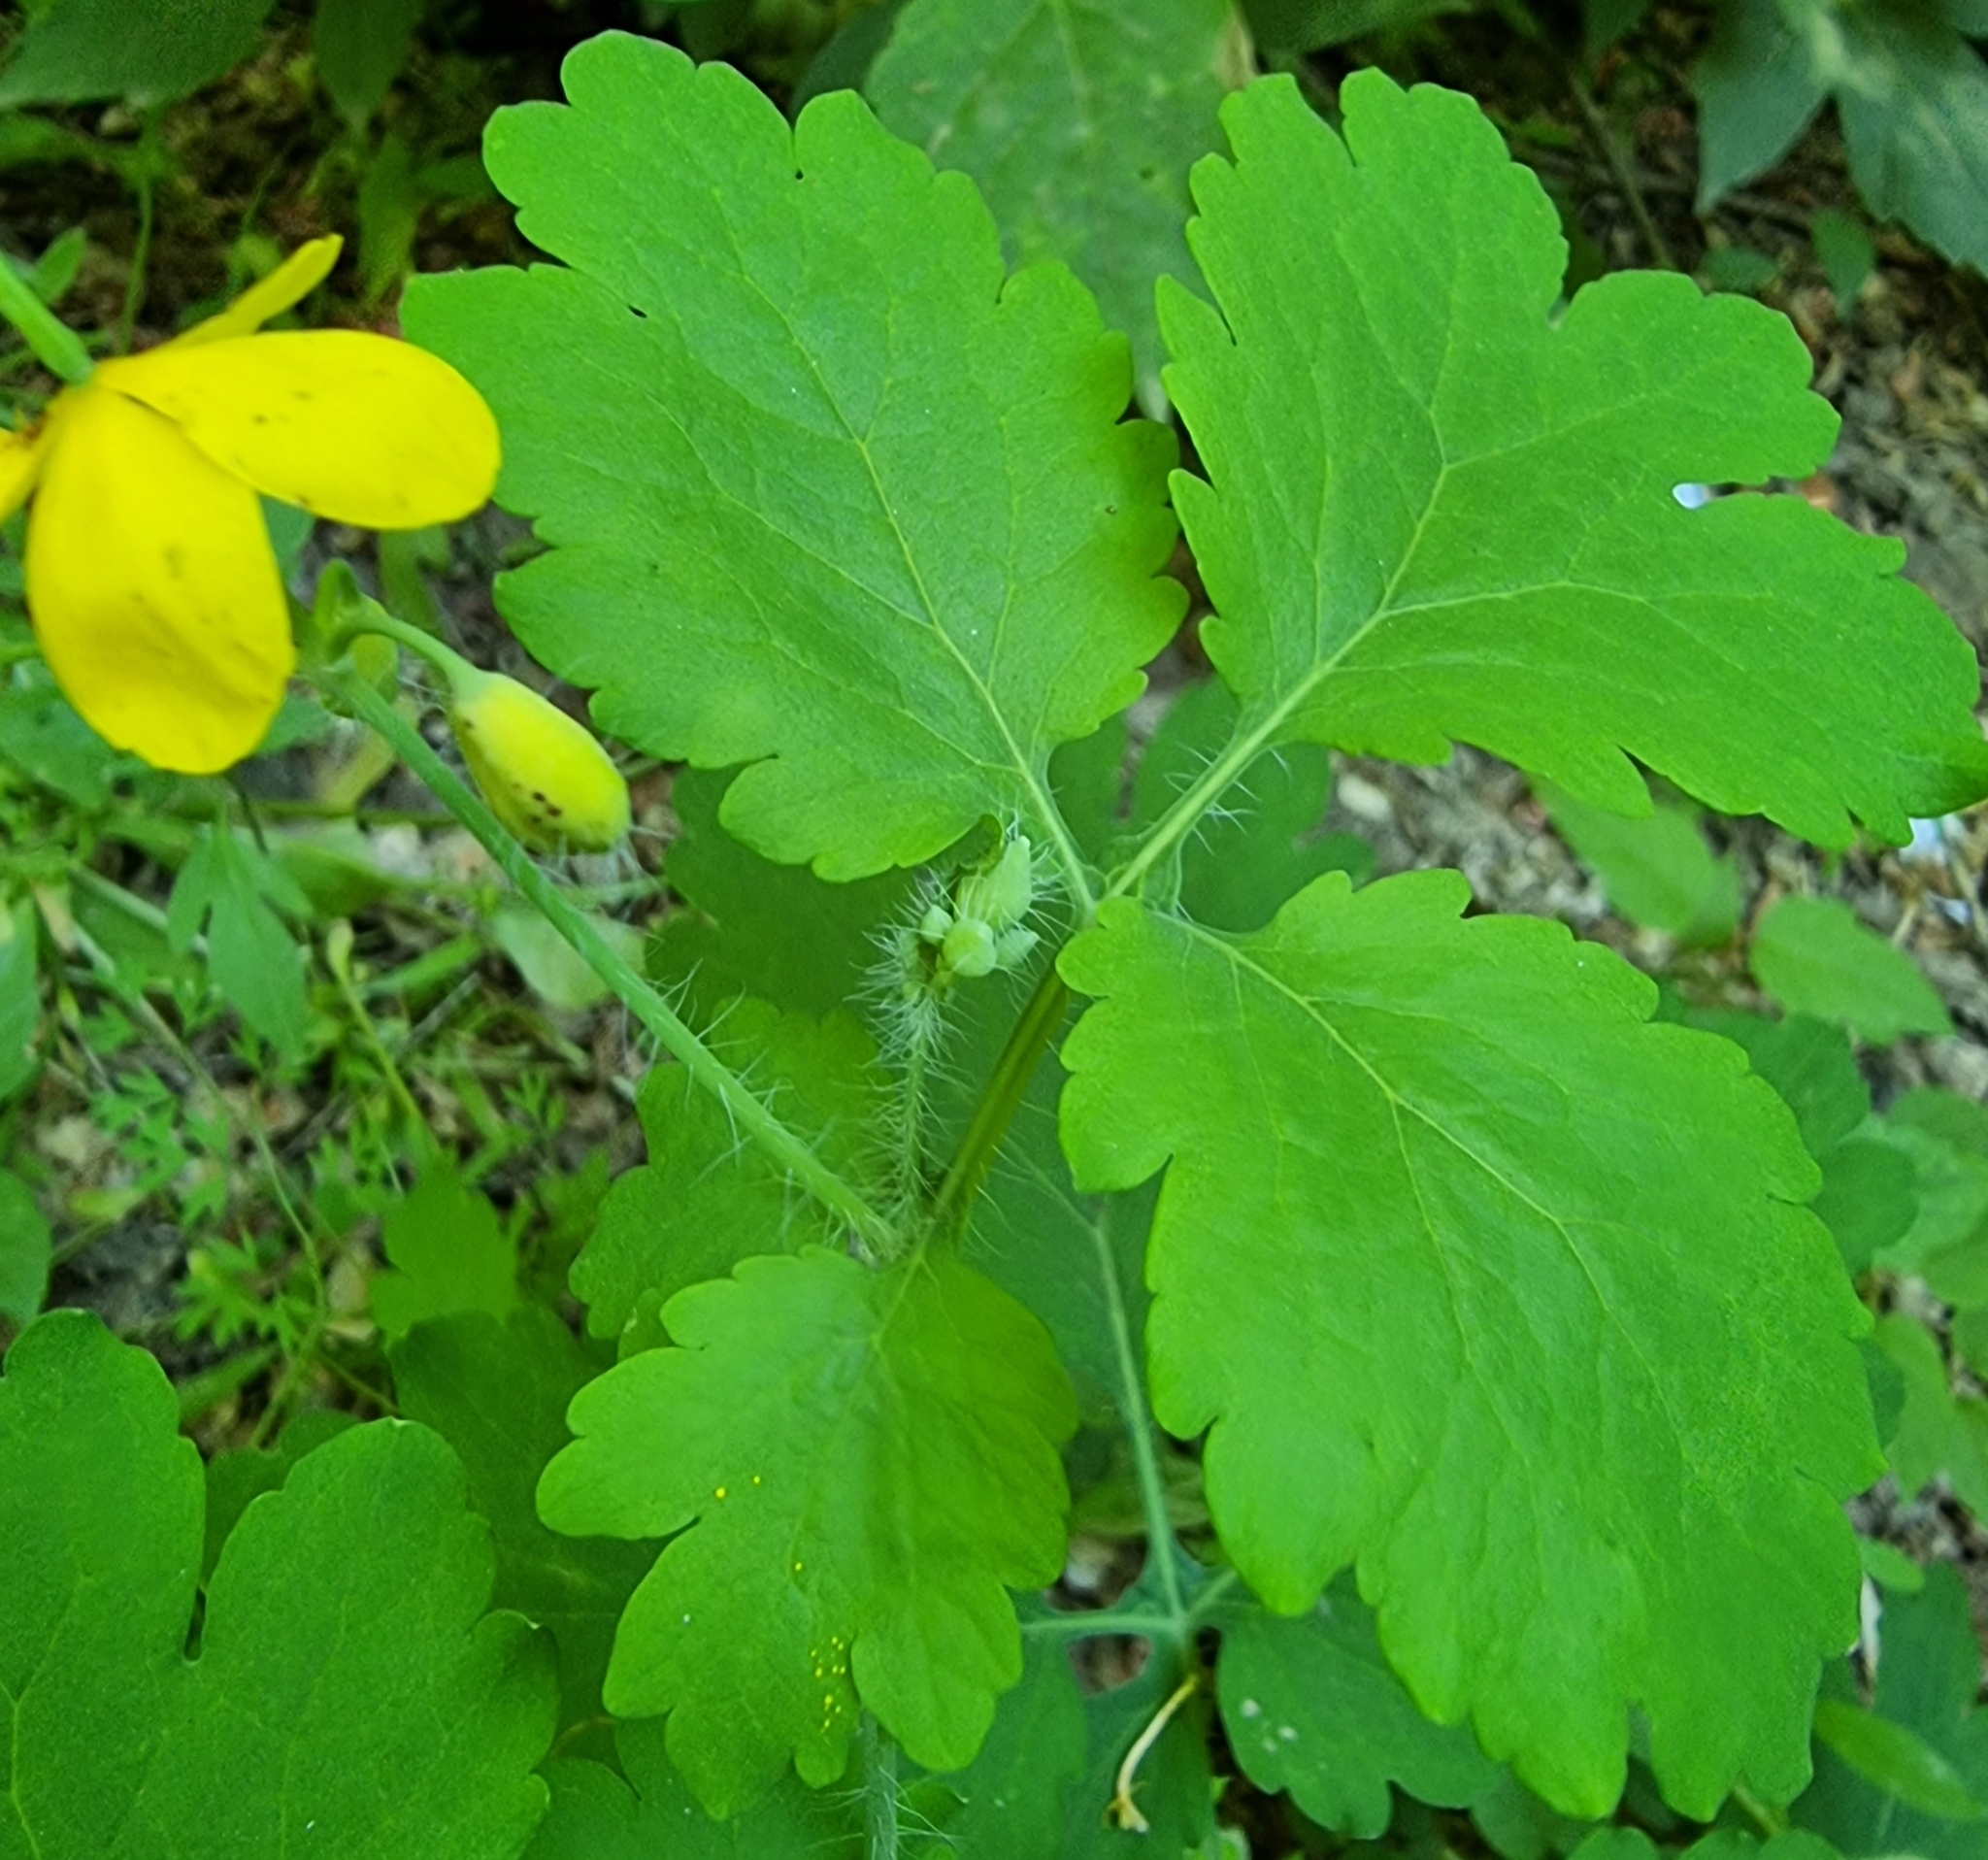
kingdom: Plantae
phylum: Tracheophyta
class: Magnoliopsida
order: Ranunculales
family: Papaveraceae
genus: Chelidonium
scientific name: Chelidonium majus
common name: Greater celandine
